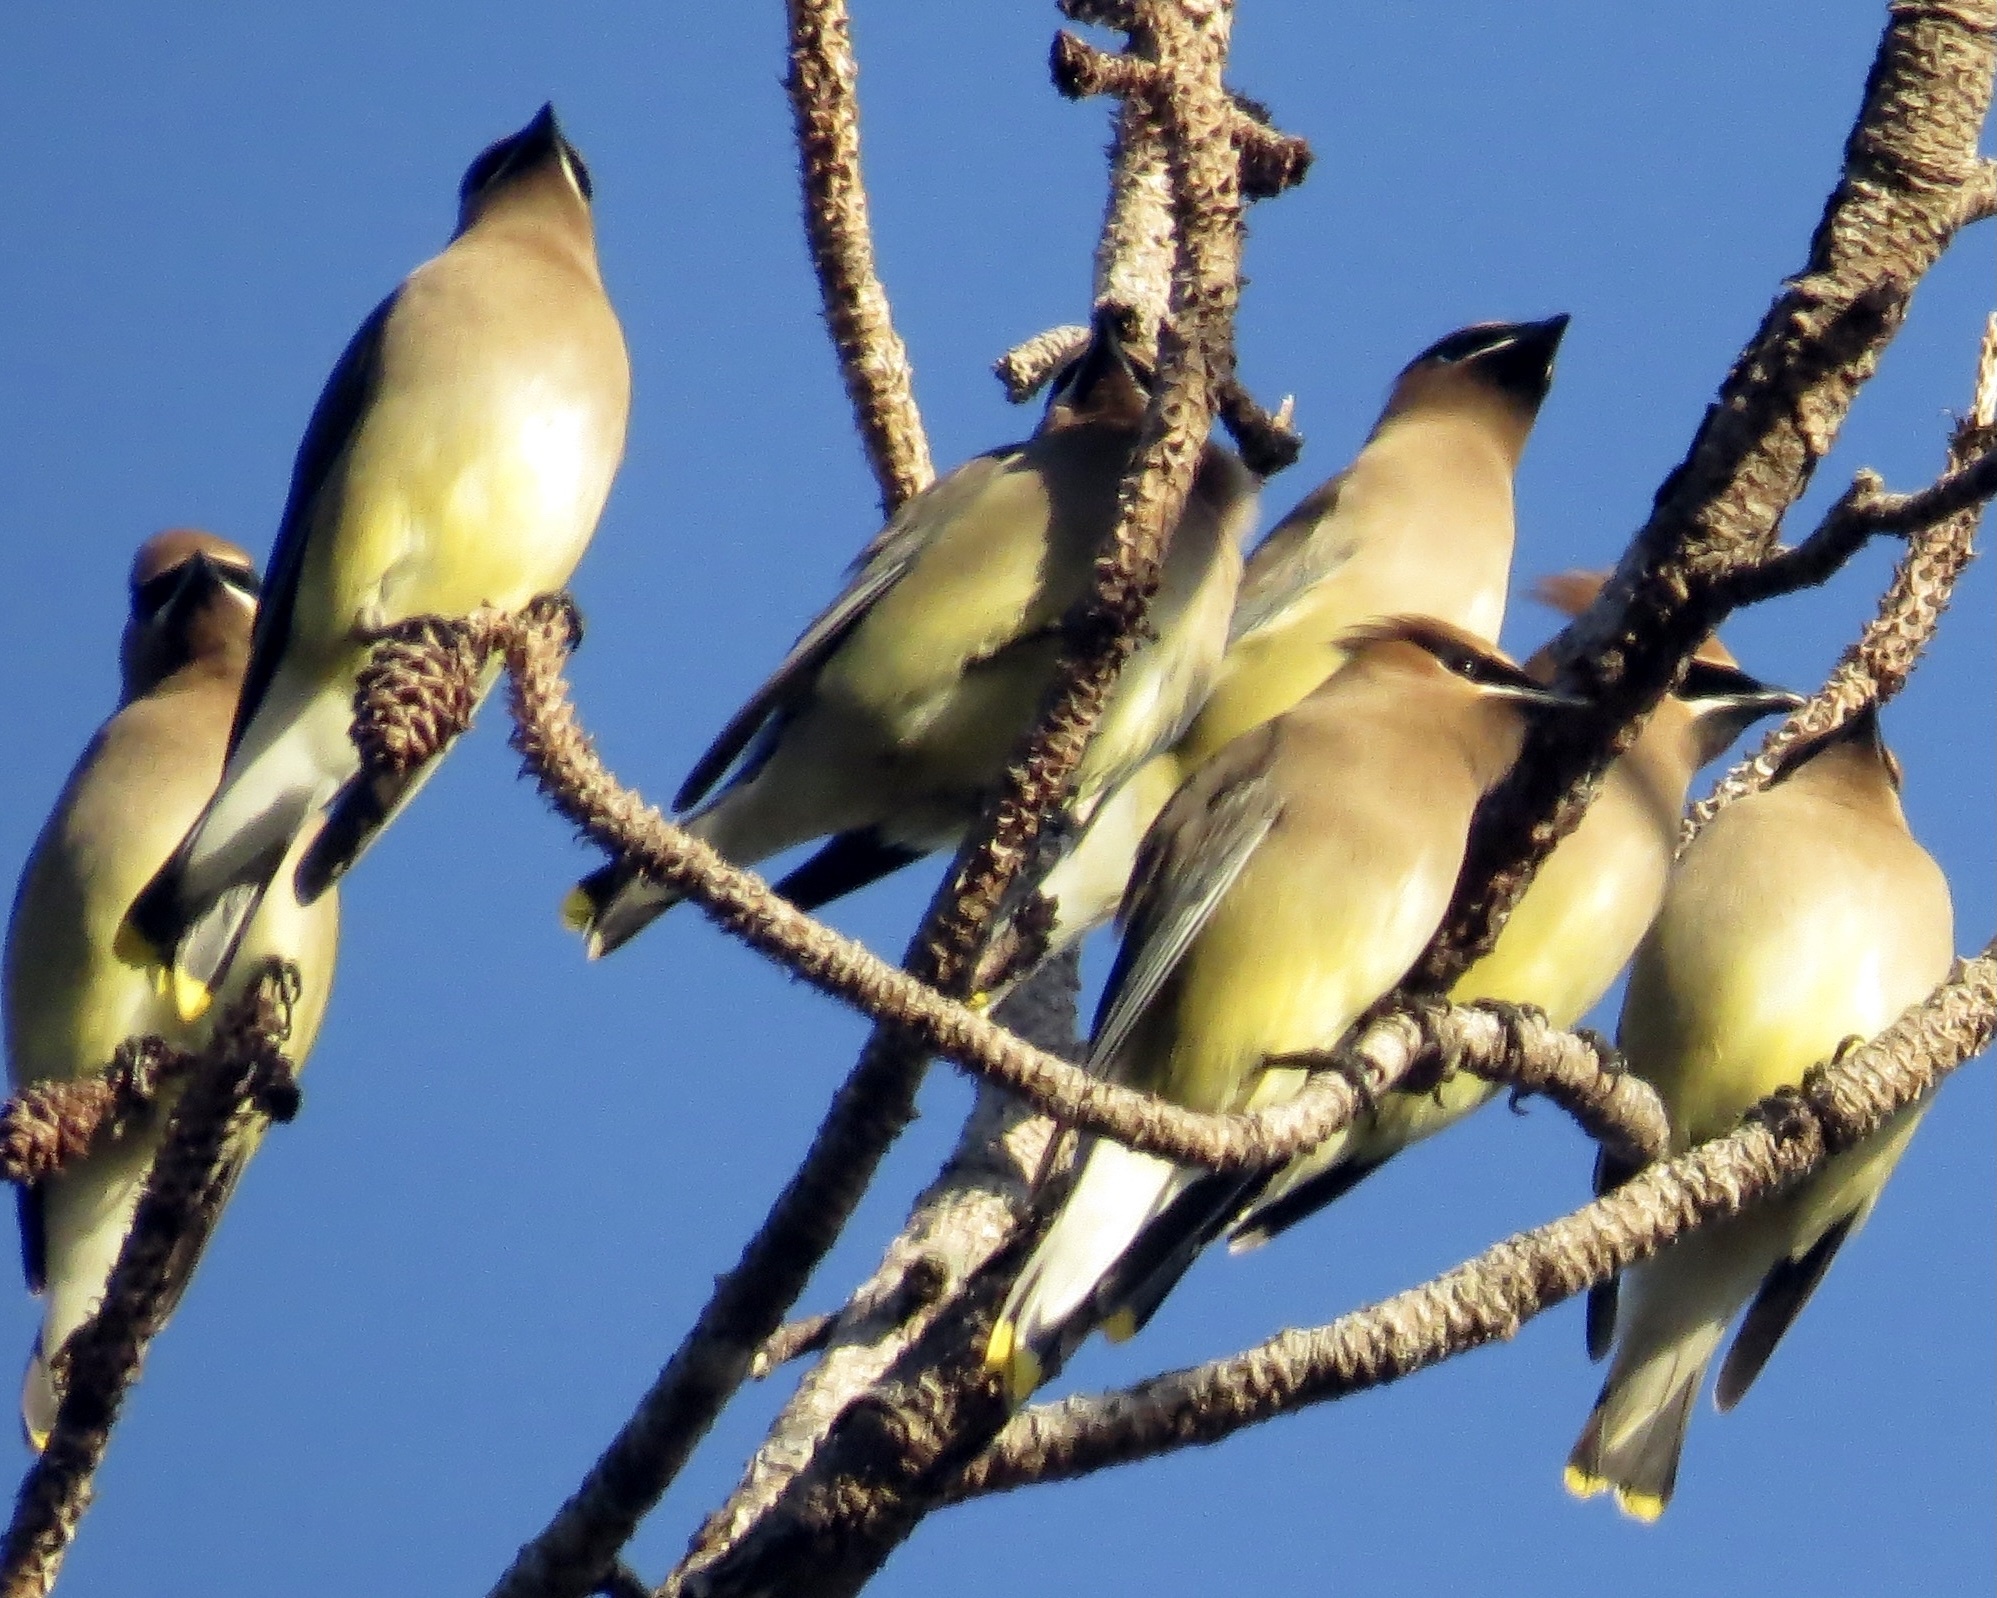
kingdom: Animalia
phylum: Chordata
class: Aves
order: Passeriformes
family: Bombycillidae
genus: Bombycilla
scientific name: Bombycilla cedrorum
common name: Cedar waxwing
